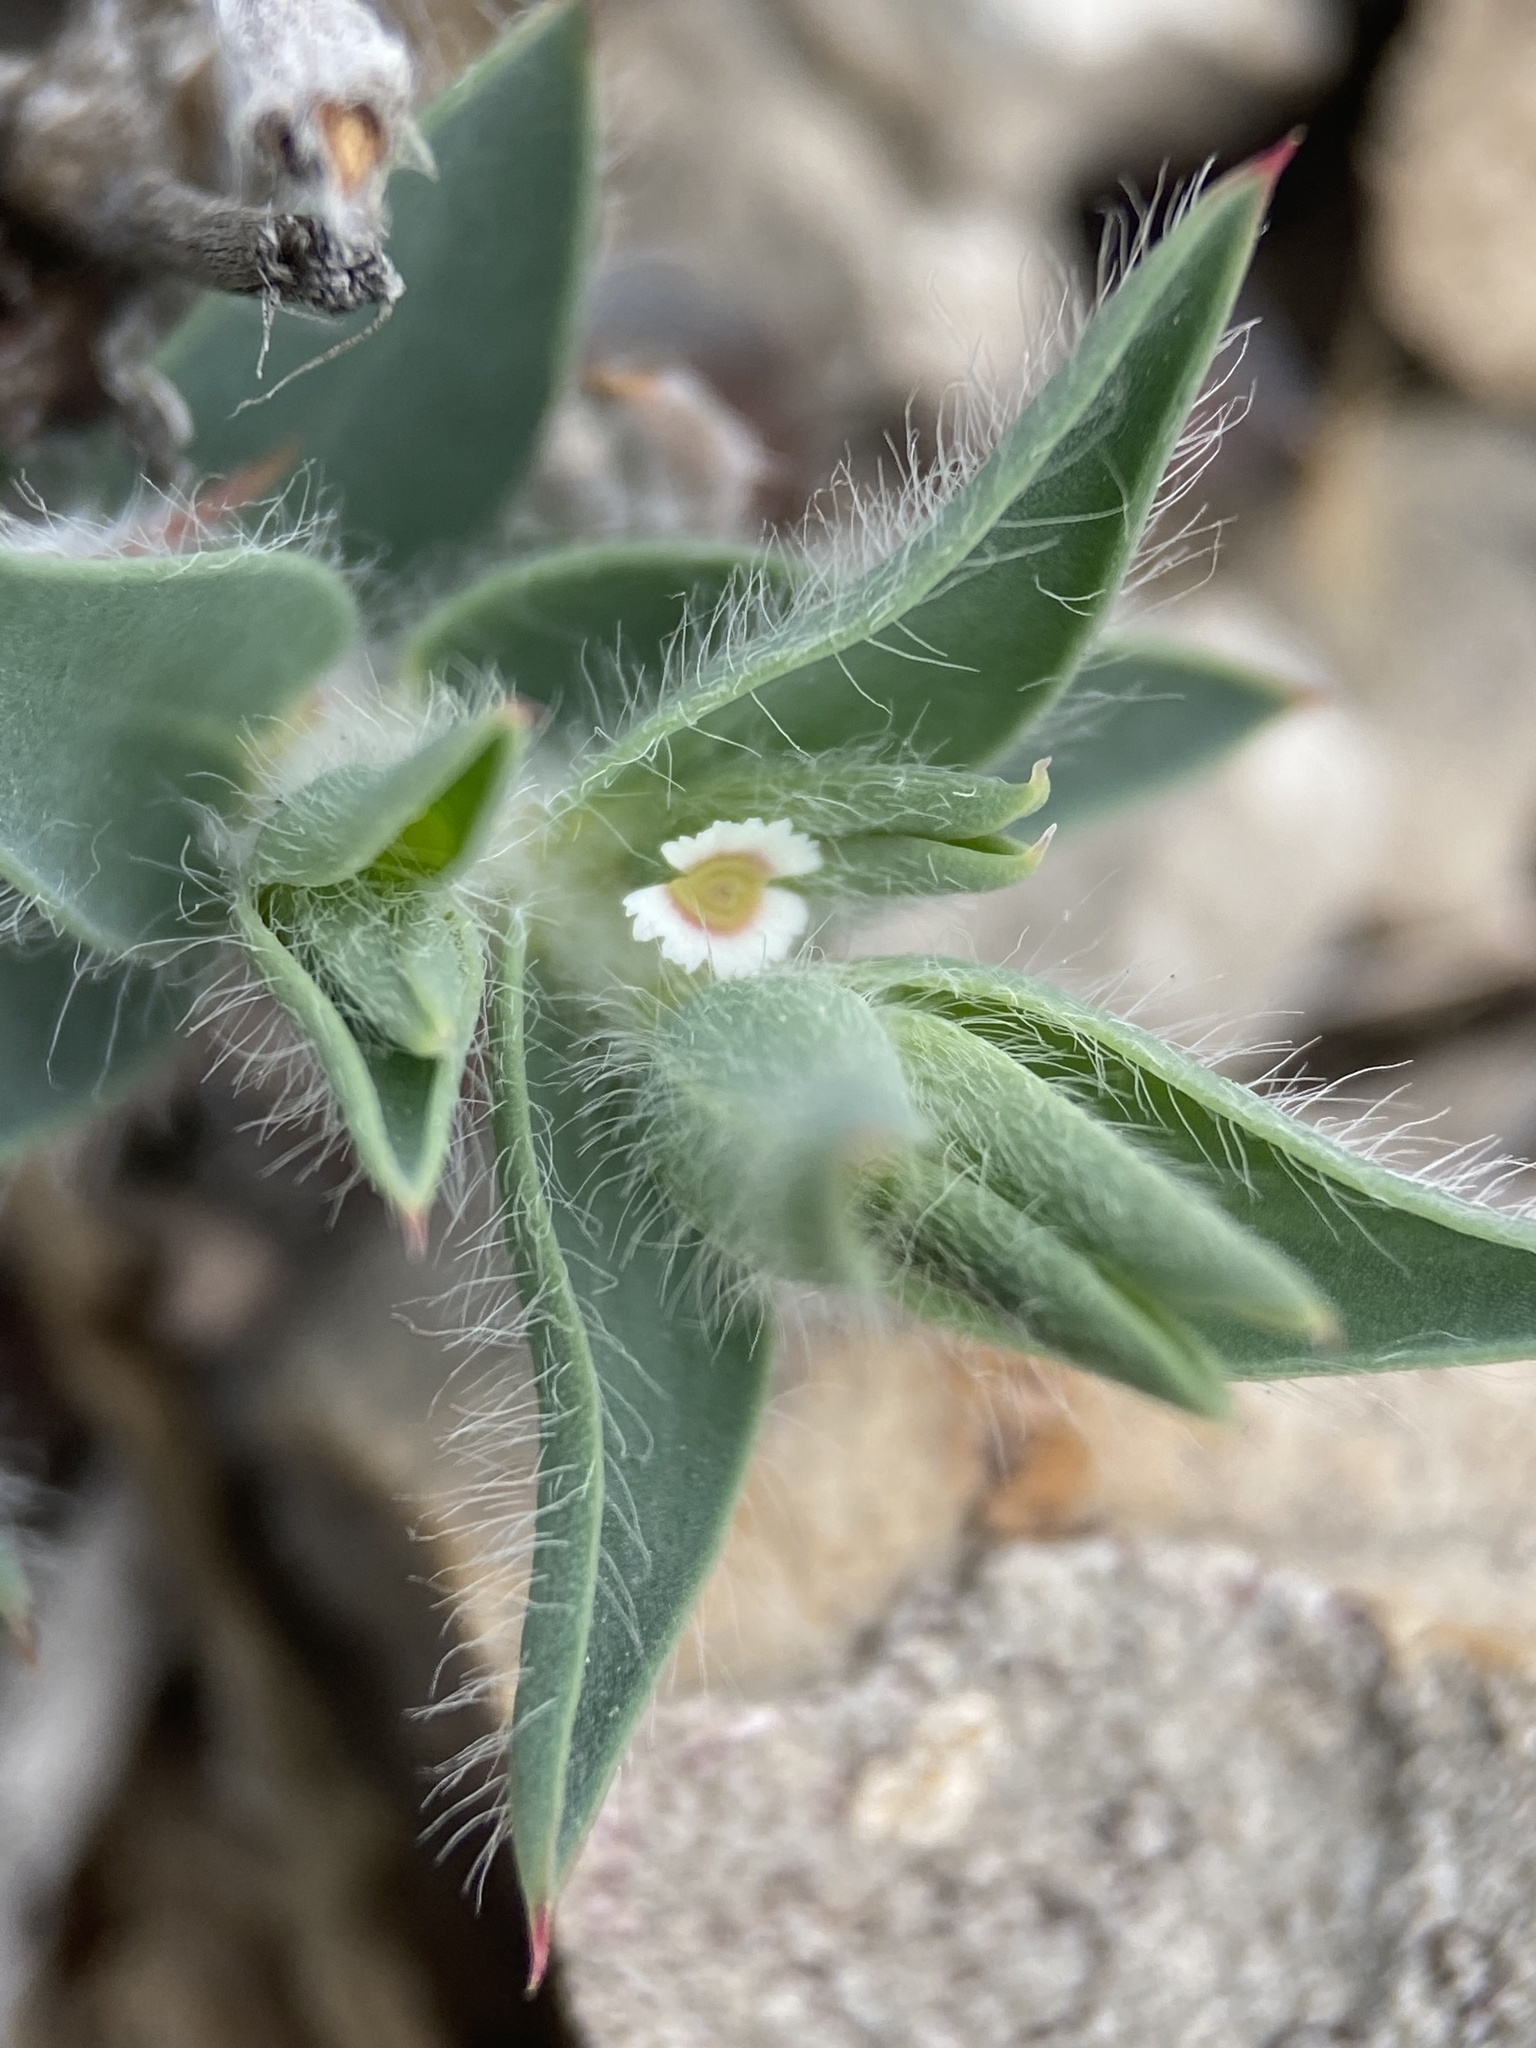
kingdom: Plantae
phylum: Tracheophyta
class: Magnoliopsida
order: Malpighiales
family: Euphorbiaceae
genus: Euphorbia
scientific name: Euphorbia acuta
